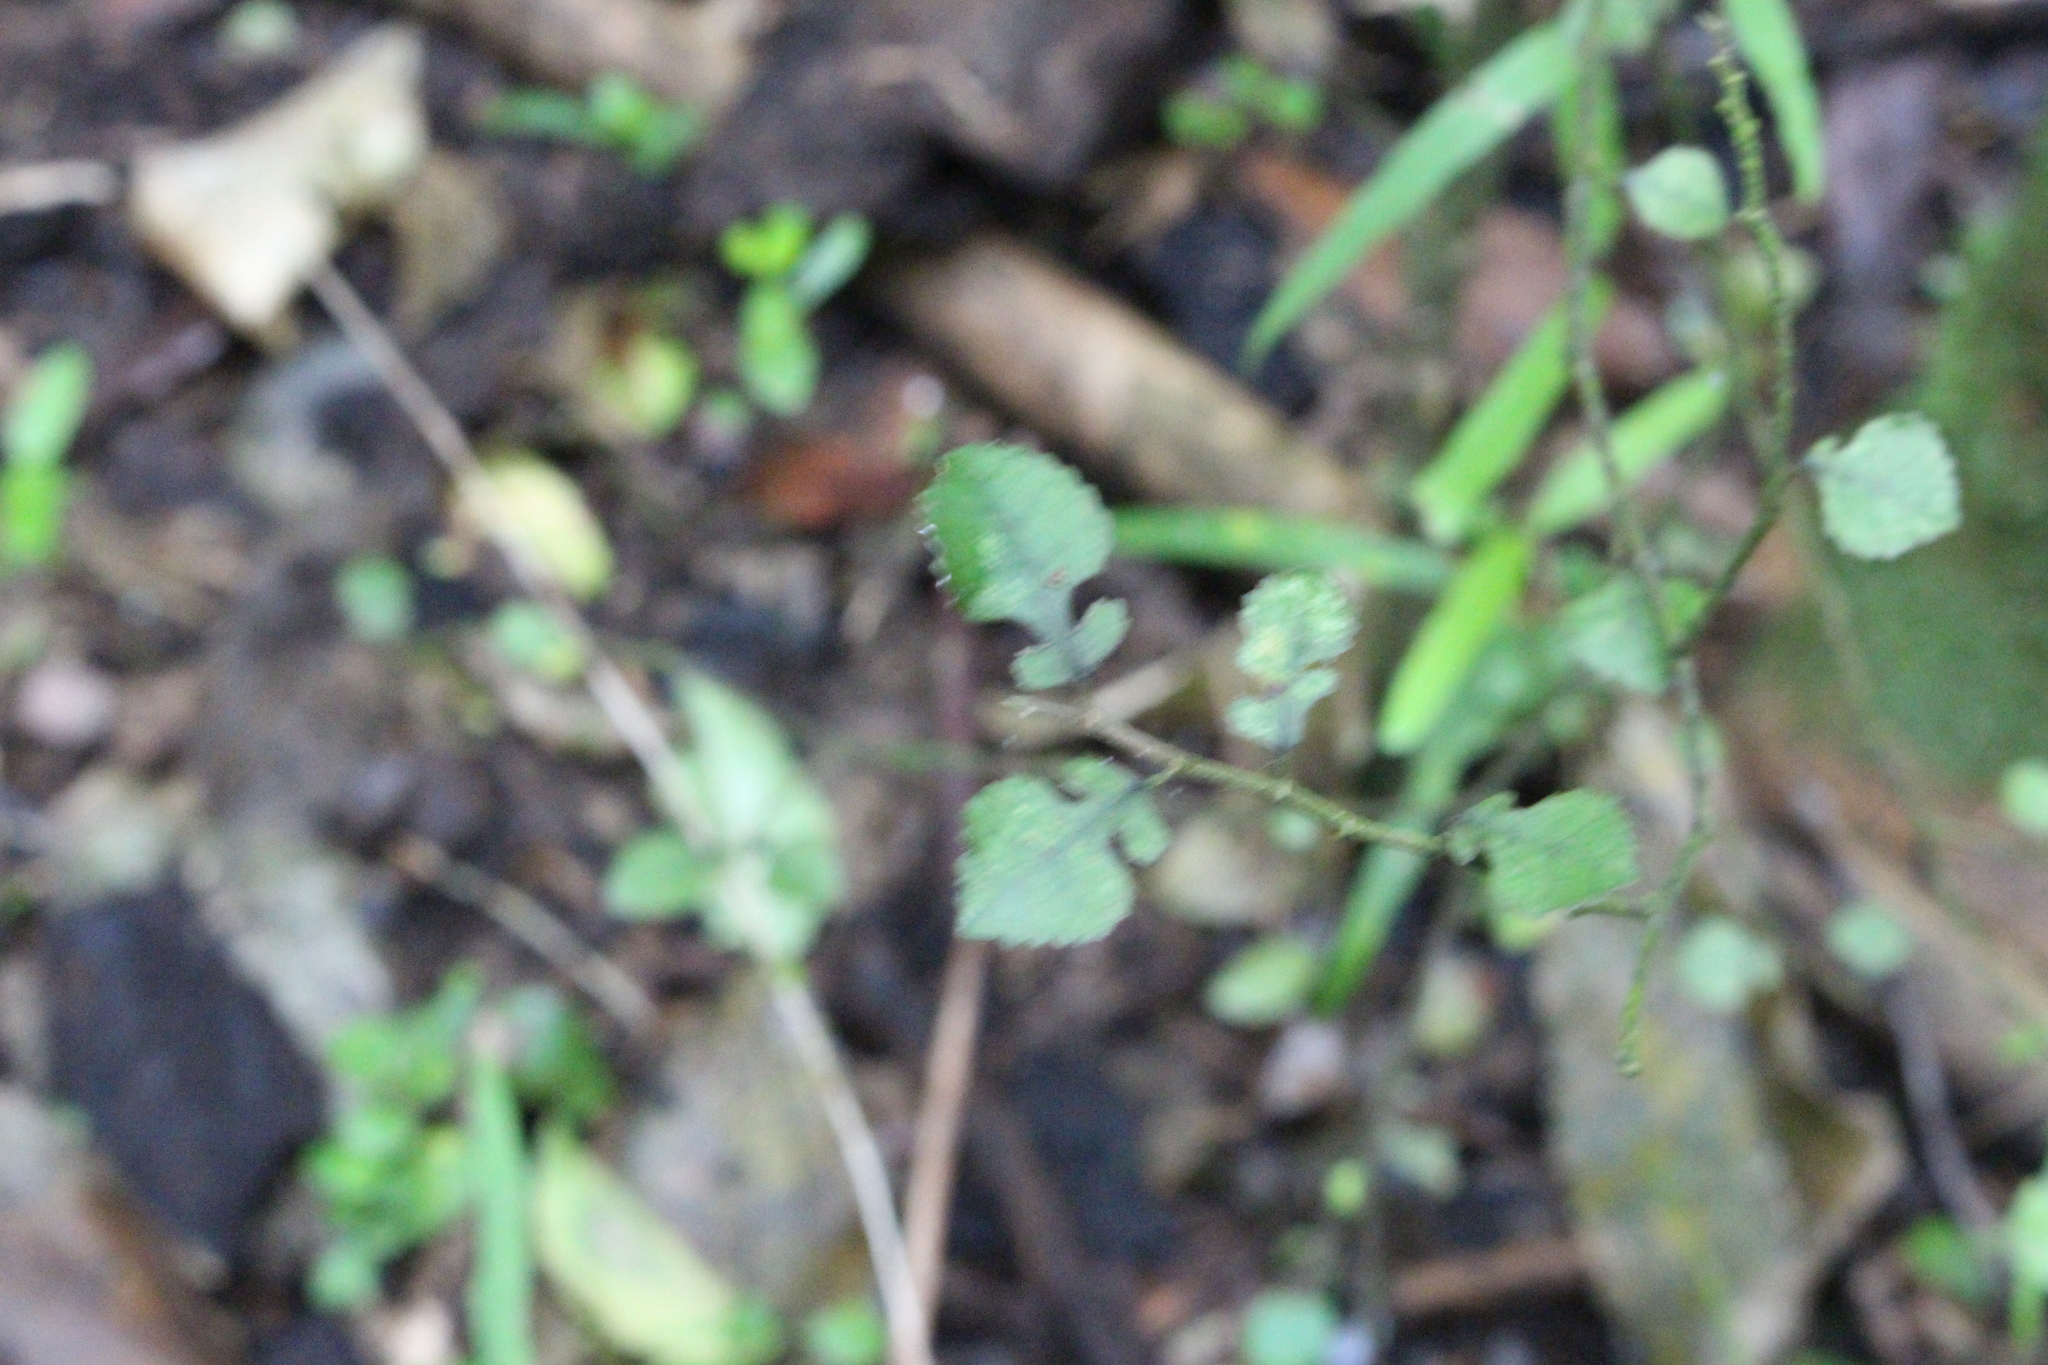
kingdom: Plantae
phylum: Tracheophyta
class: Magnoliopsida
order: Rosales
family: Moraceae
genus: Paratrophis
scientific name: Paratrophis microphylla
